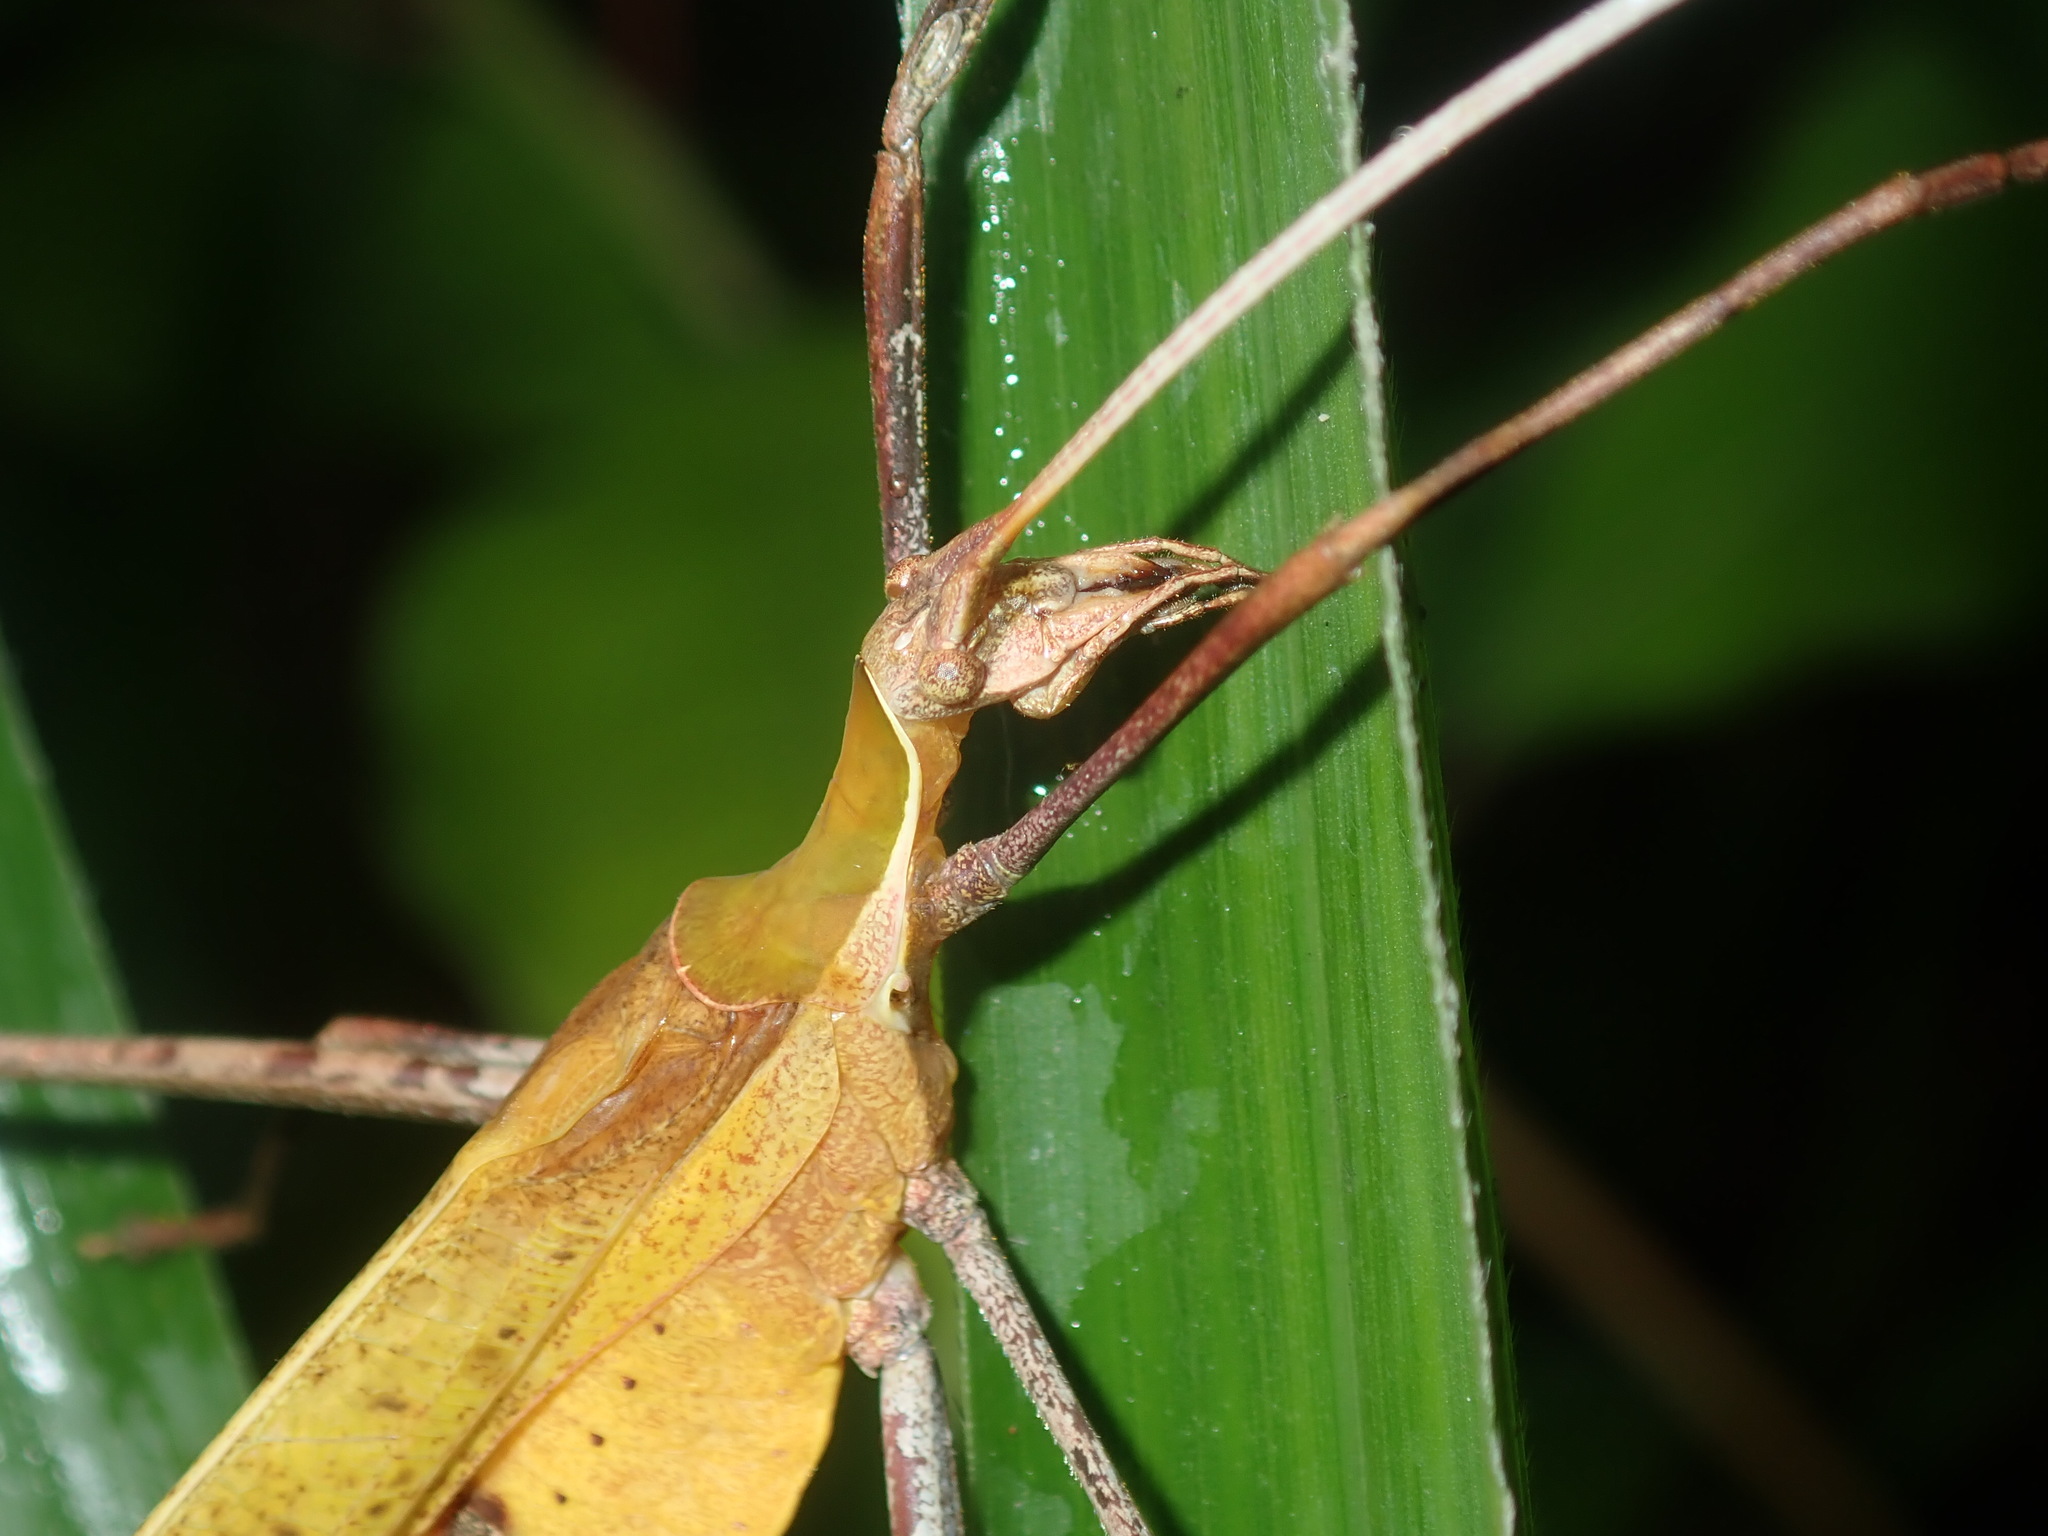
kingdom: Animalia
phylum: Arthropoda
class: Insecta
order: Orthoptera
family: Tettigoniidae
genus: Anthophiloptera
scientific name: Anthophiloptera dryas
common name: Balsam beast
